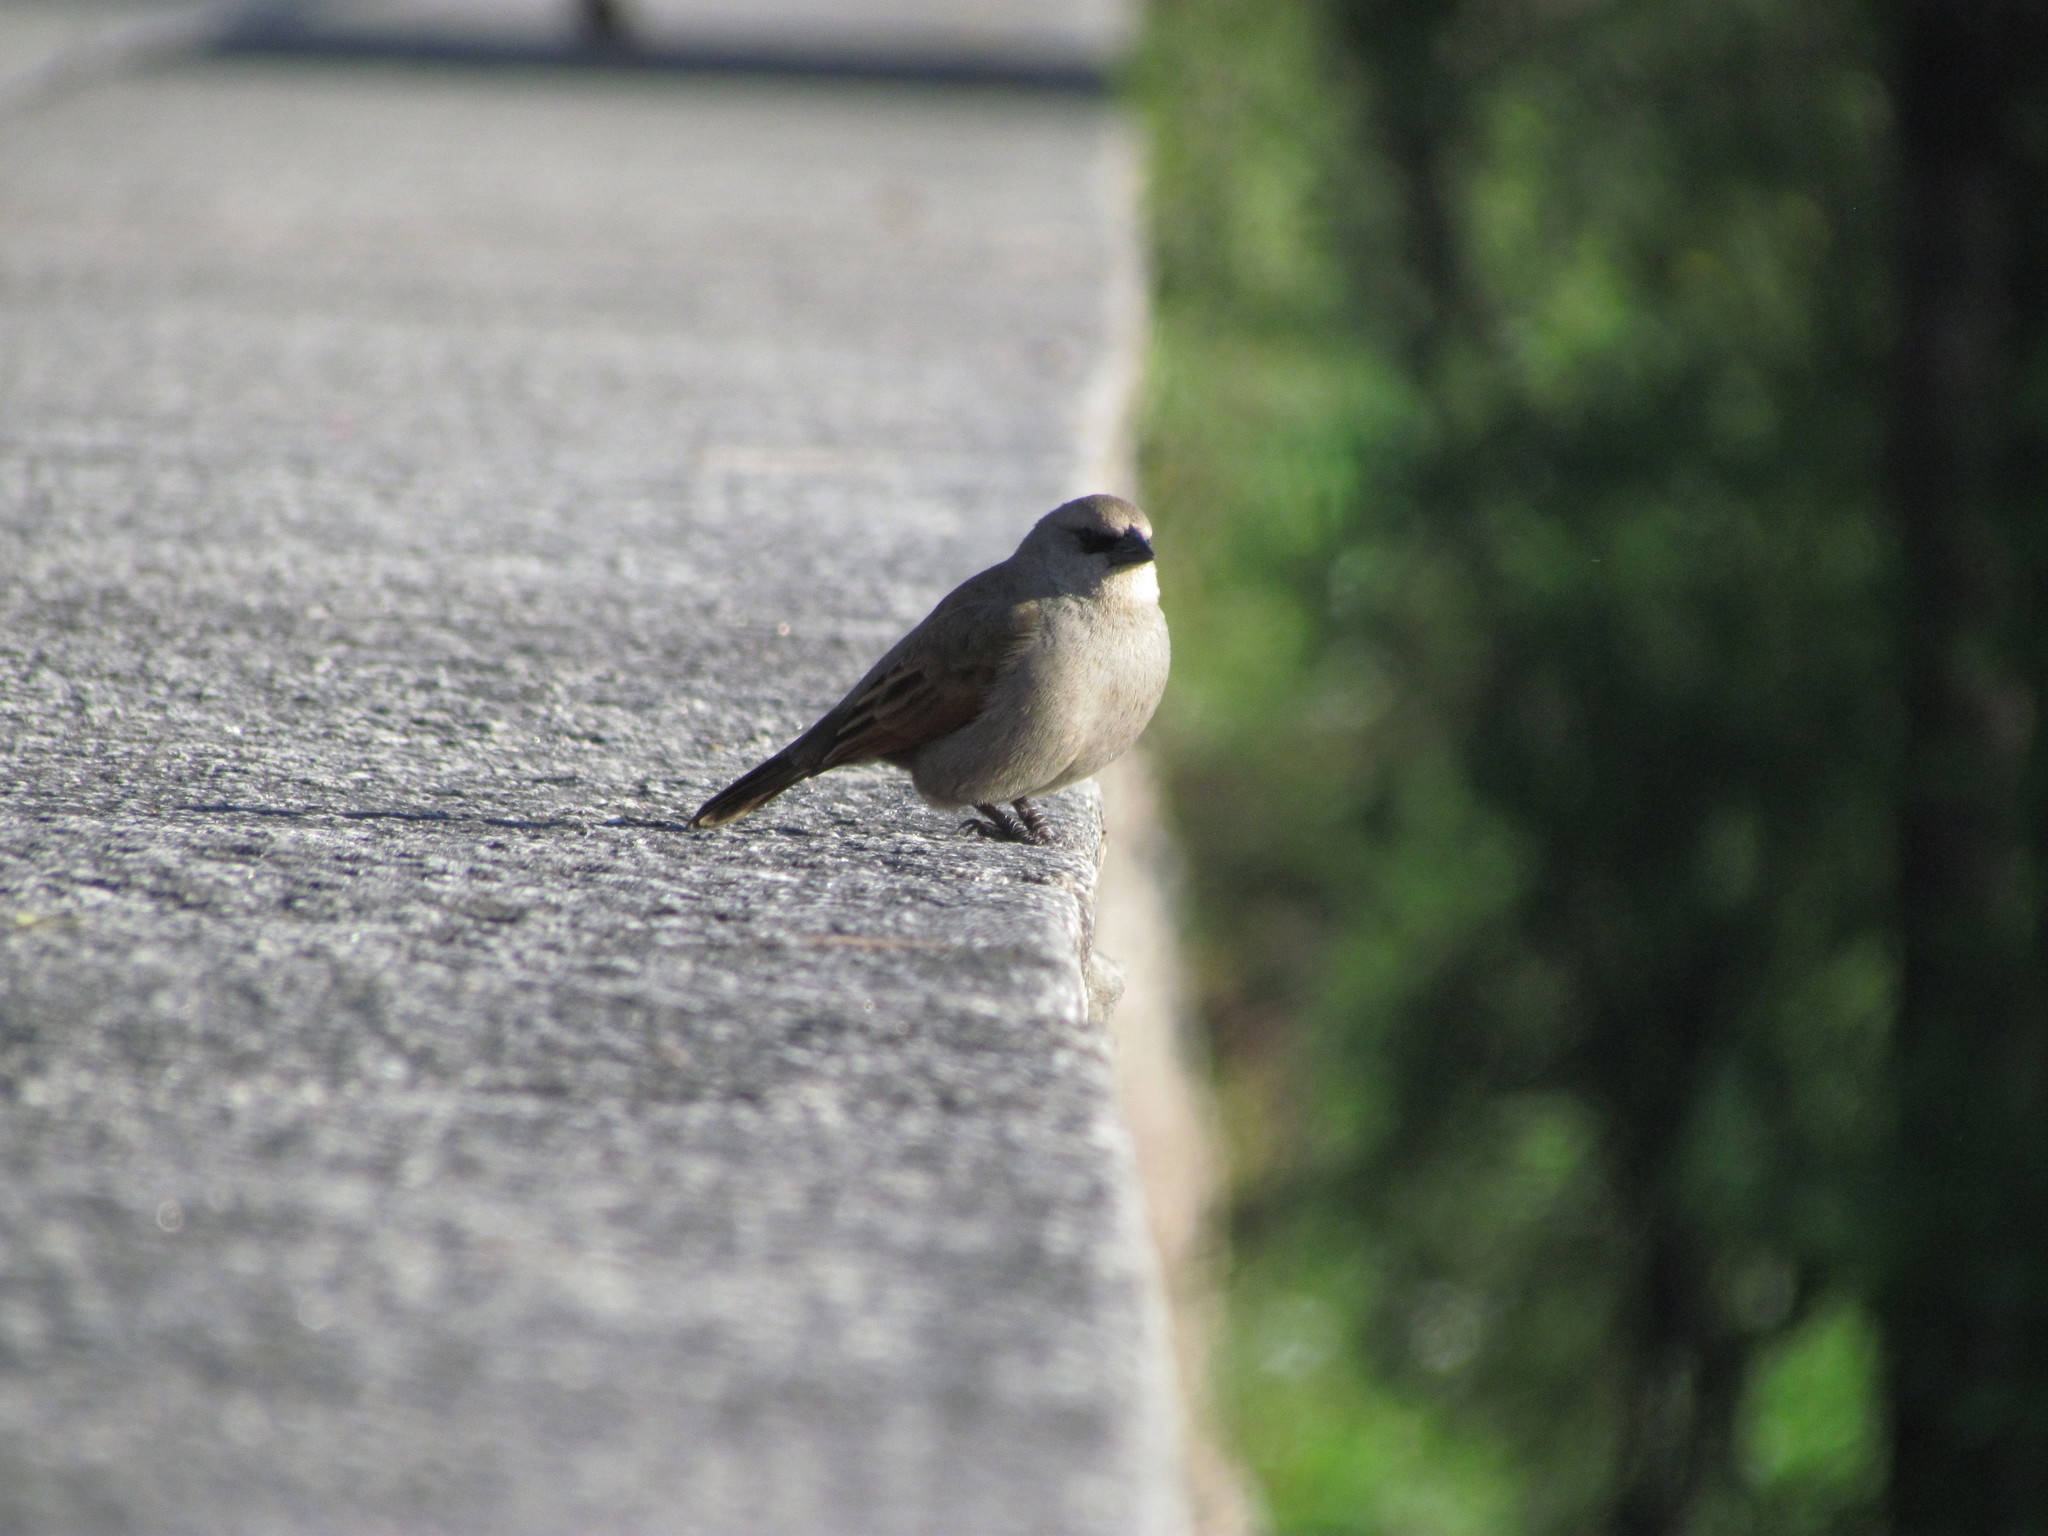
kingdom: Animalia
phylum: Chordata
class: Aves
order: Passeriformes
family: Icteridae
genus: Agelaioides
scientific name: Agelaioides badius
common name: Baywing
